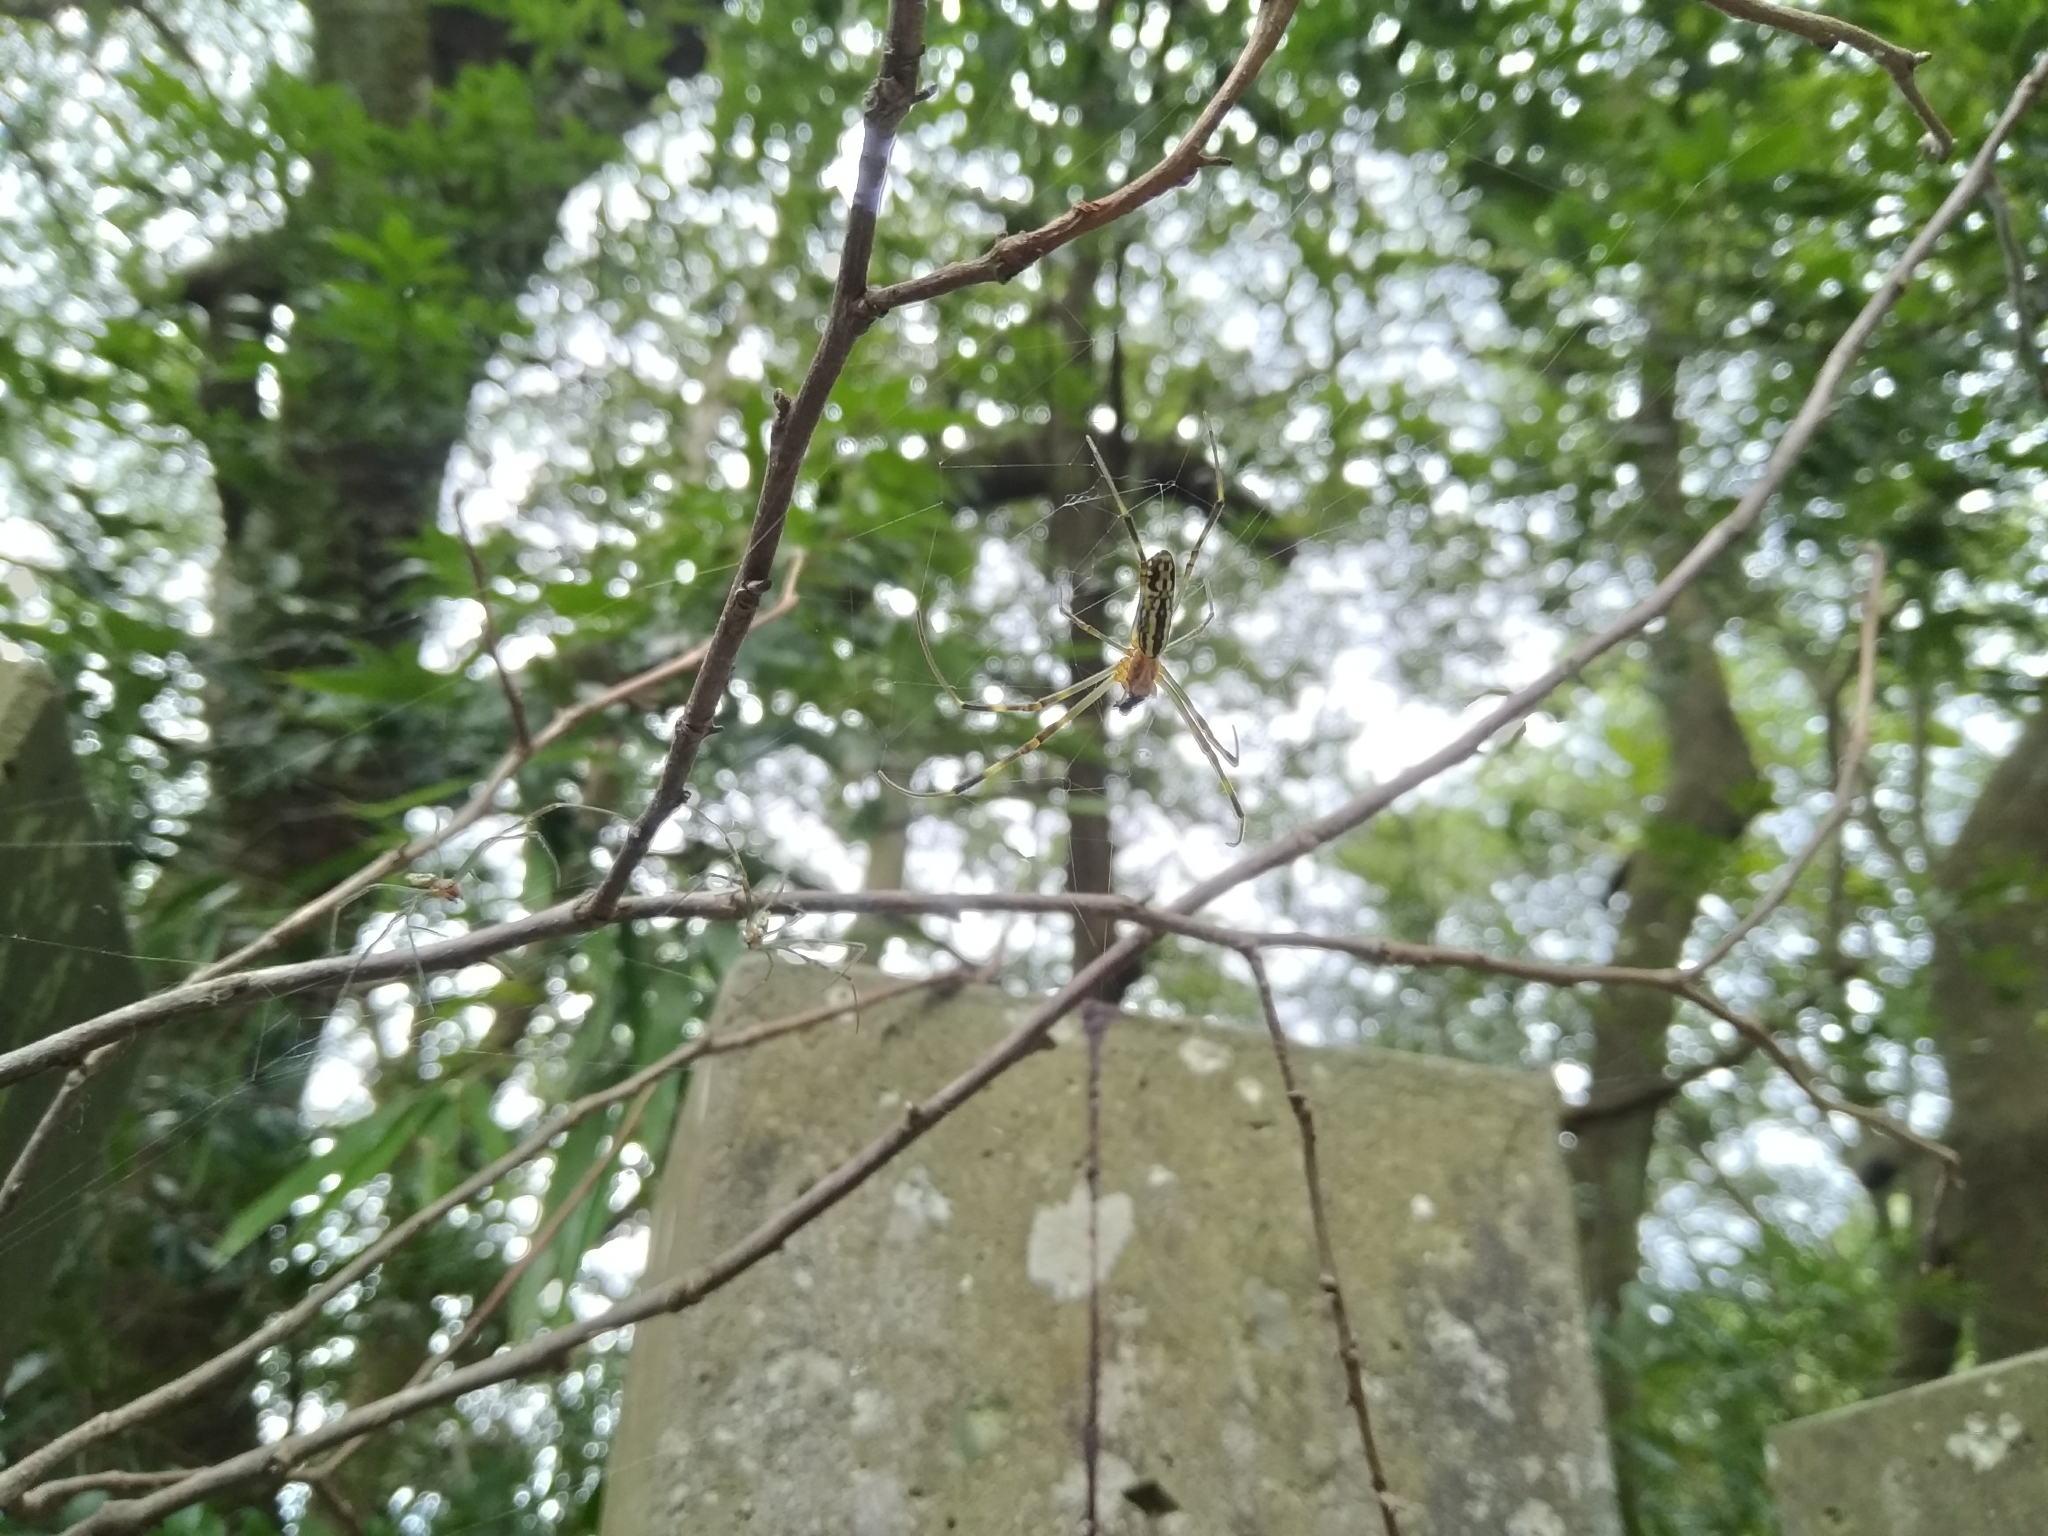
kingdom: Animalia
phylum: Arthropoda
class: Arachnida
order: Araneae
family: Araneidae
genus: Trichonephila
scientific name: Trichonephila clavata
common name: Jorō spider
